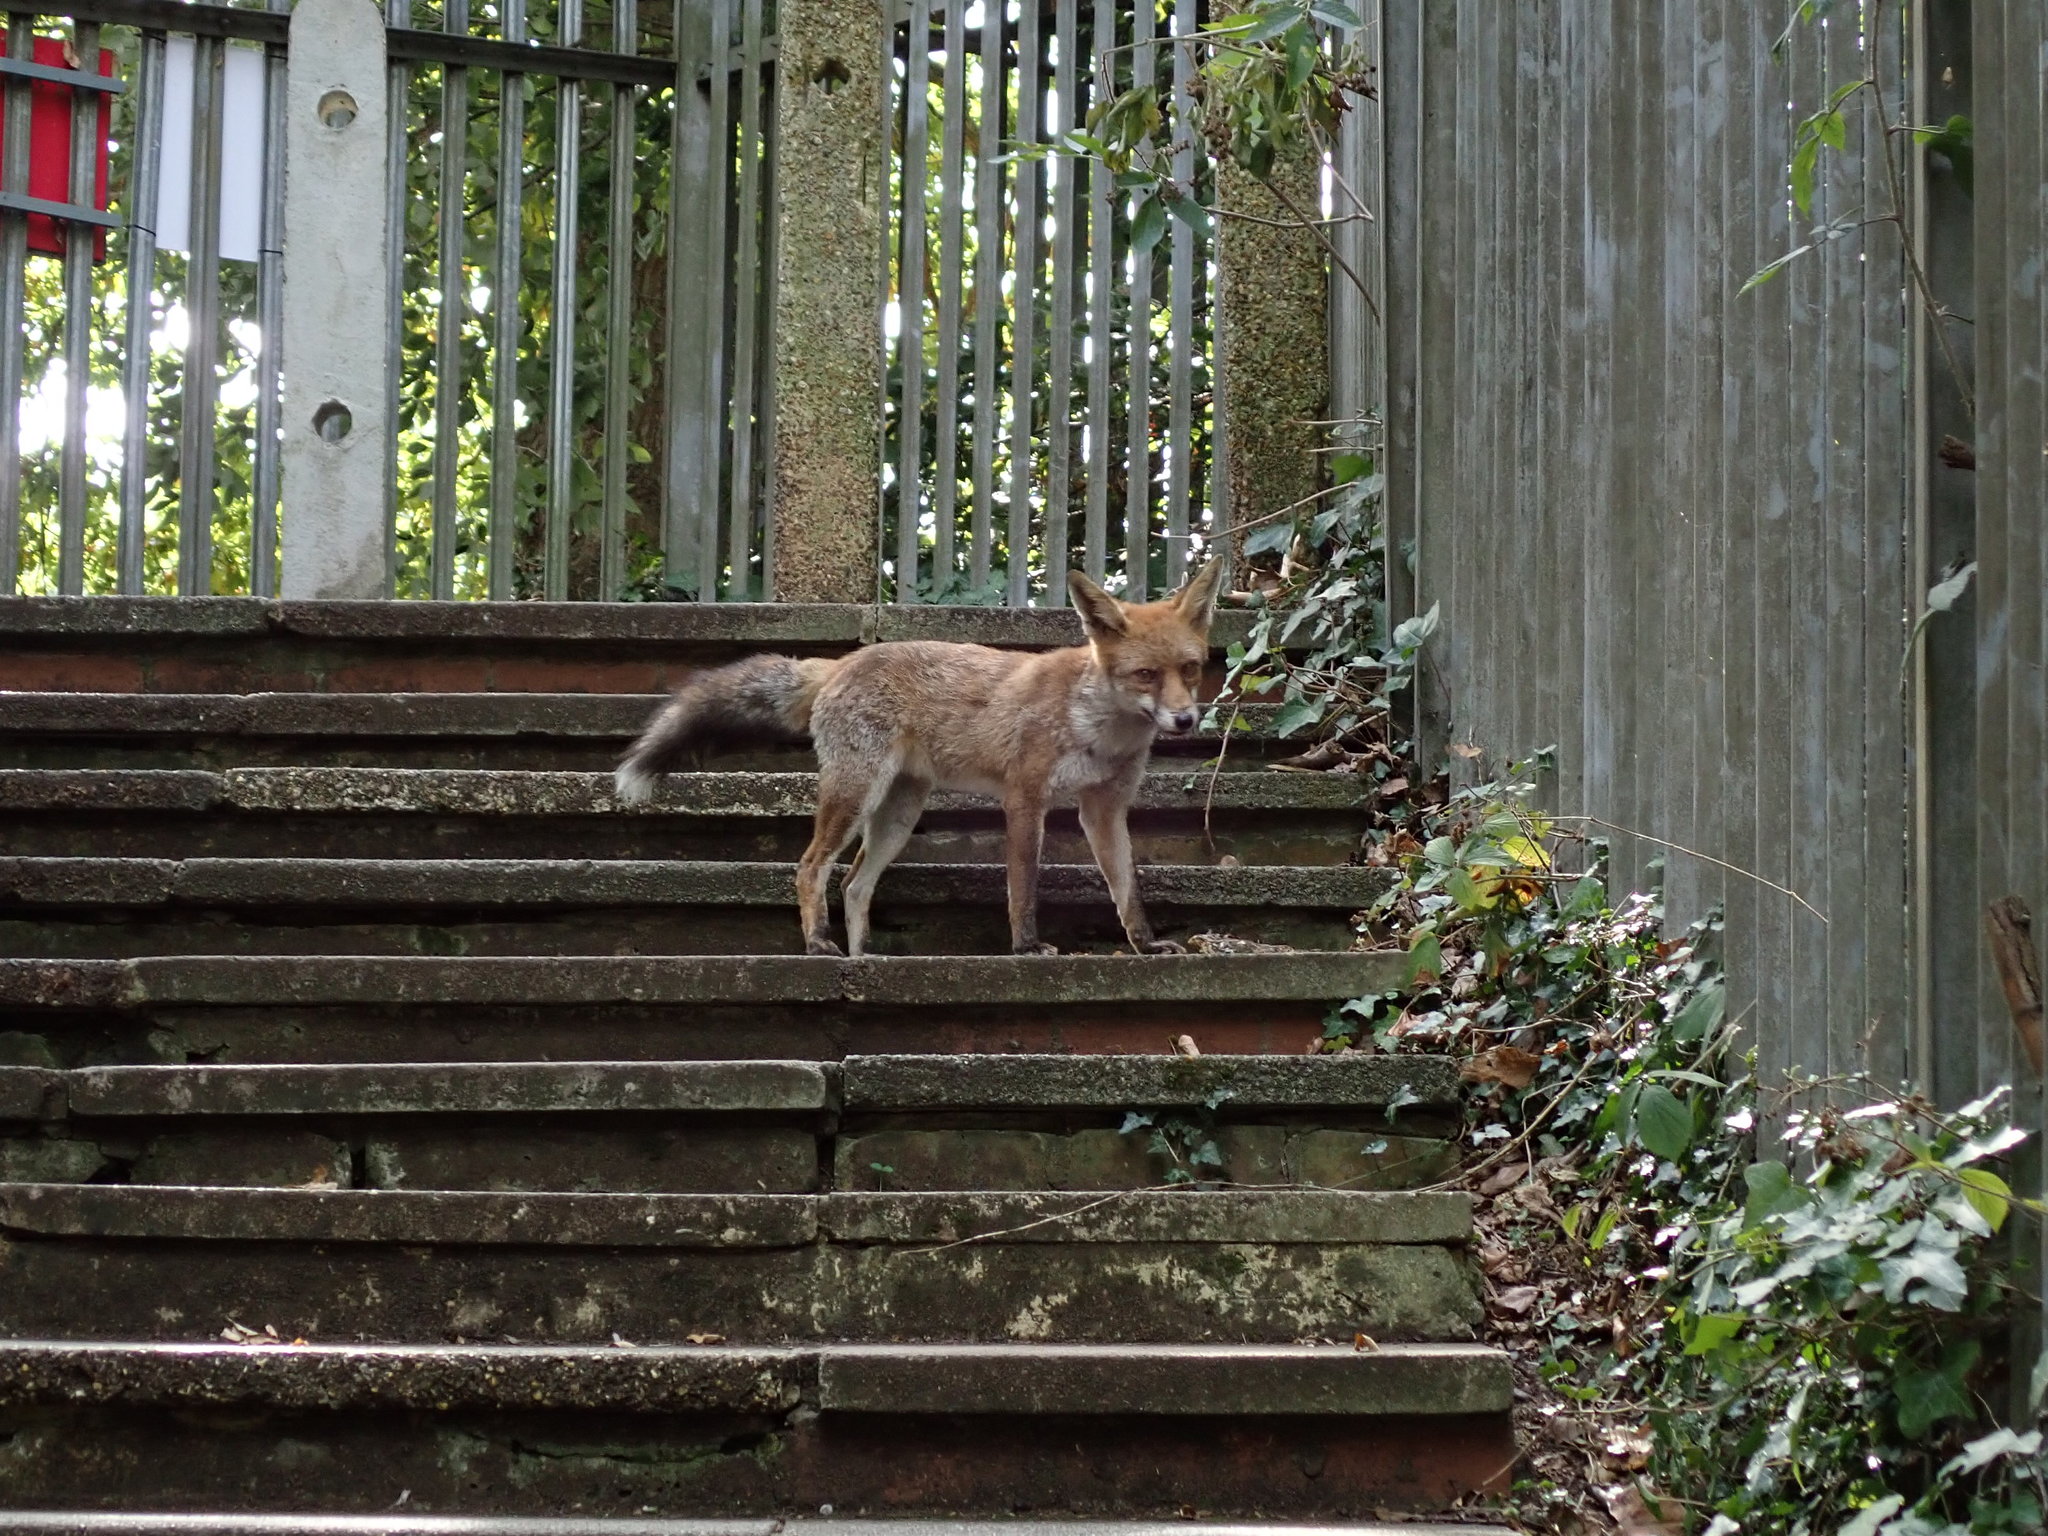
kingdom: Animalia
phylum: Chordata
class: Mammalia
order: Carnivora
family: Canidae
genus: Vulpes
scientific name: Vulpes vulpes
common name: Red fox
